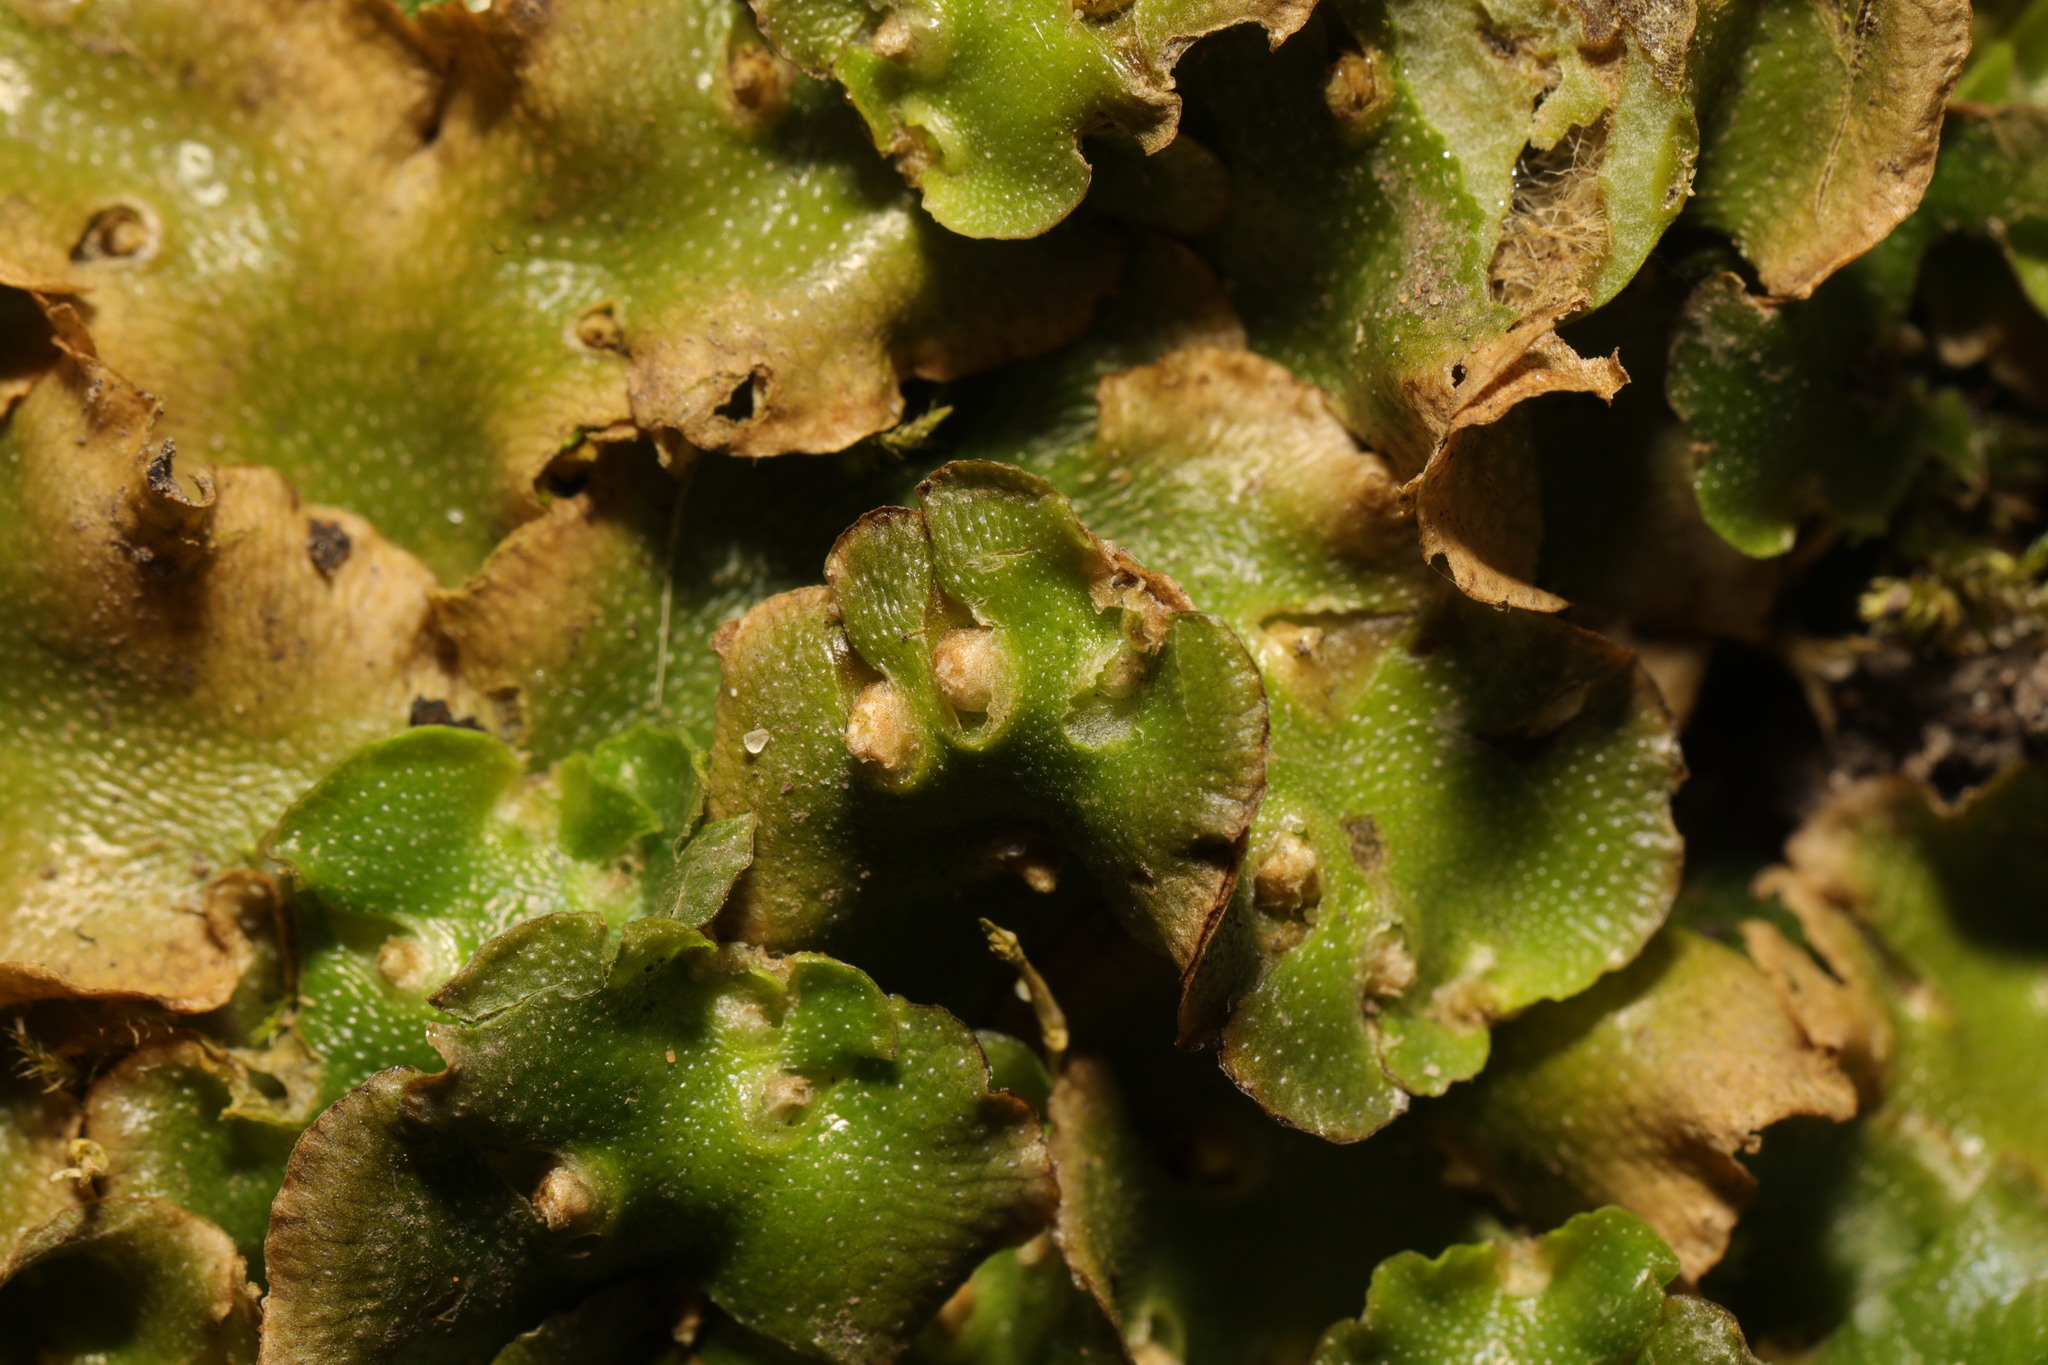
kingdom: Plantae
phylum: Marchantiophyta
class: Marchantiopsida
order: Lunulariales
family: Lunulariaceae
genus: Lunularia
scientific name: Lunularia cruciata
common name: Crescent-cup liverwort
